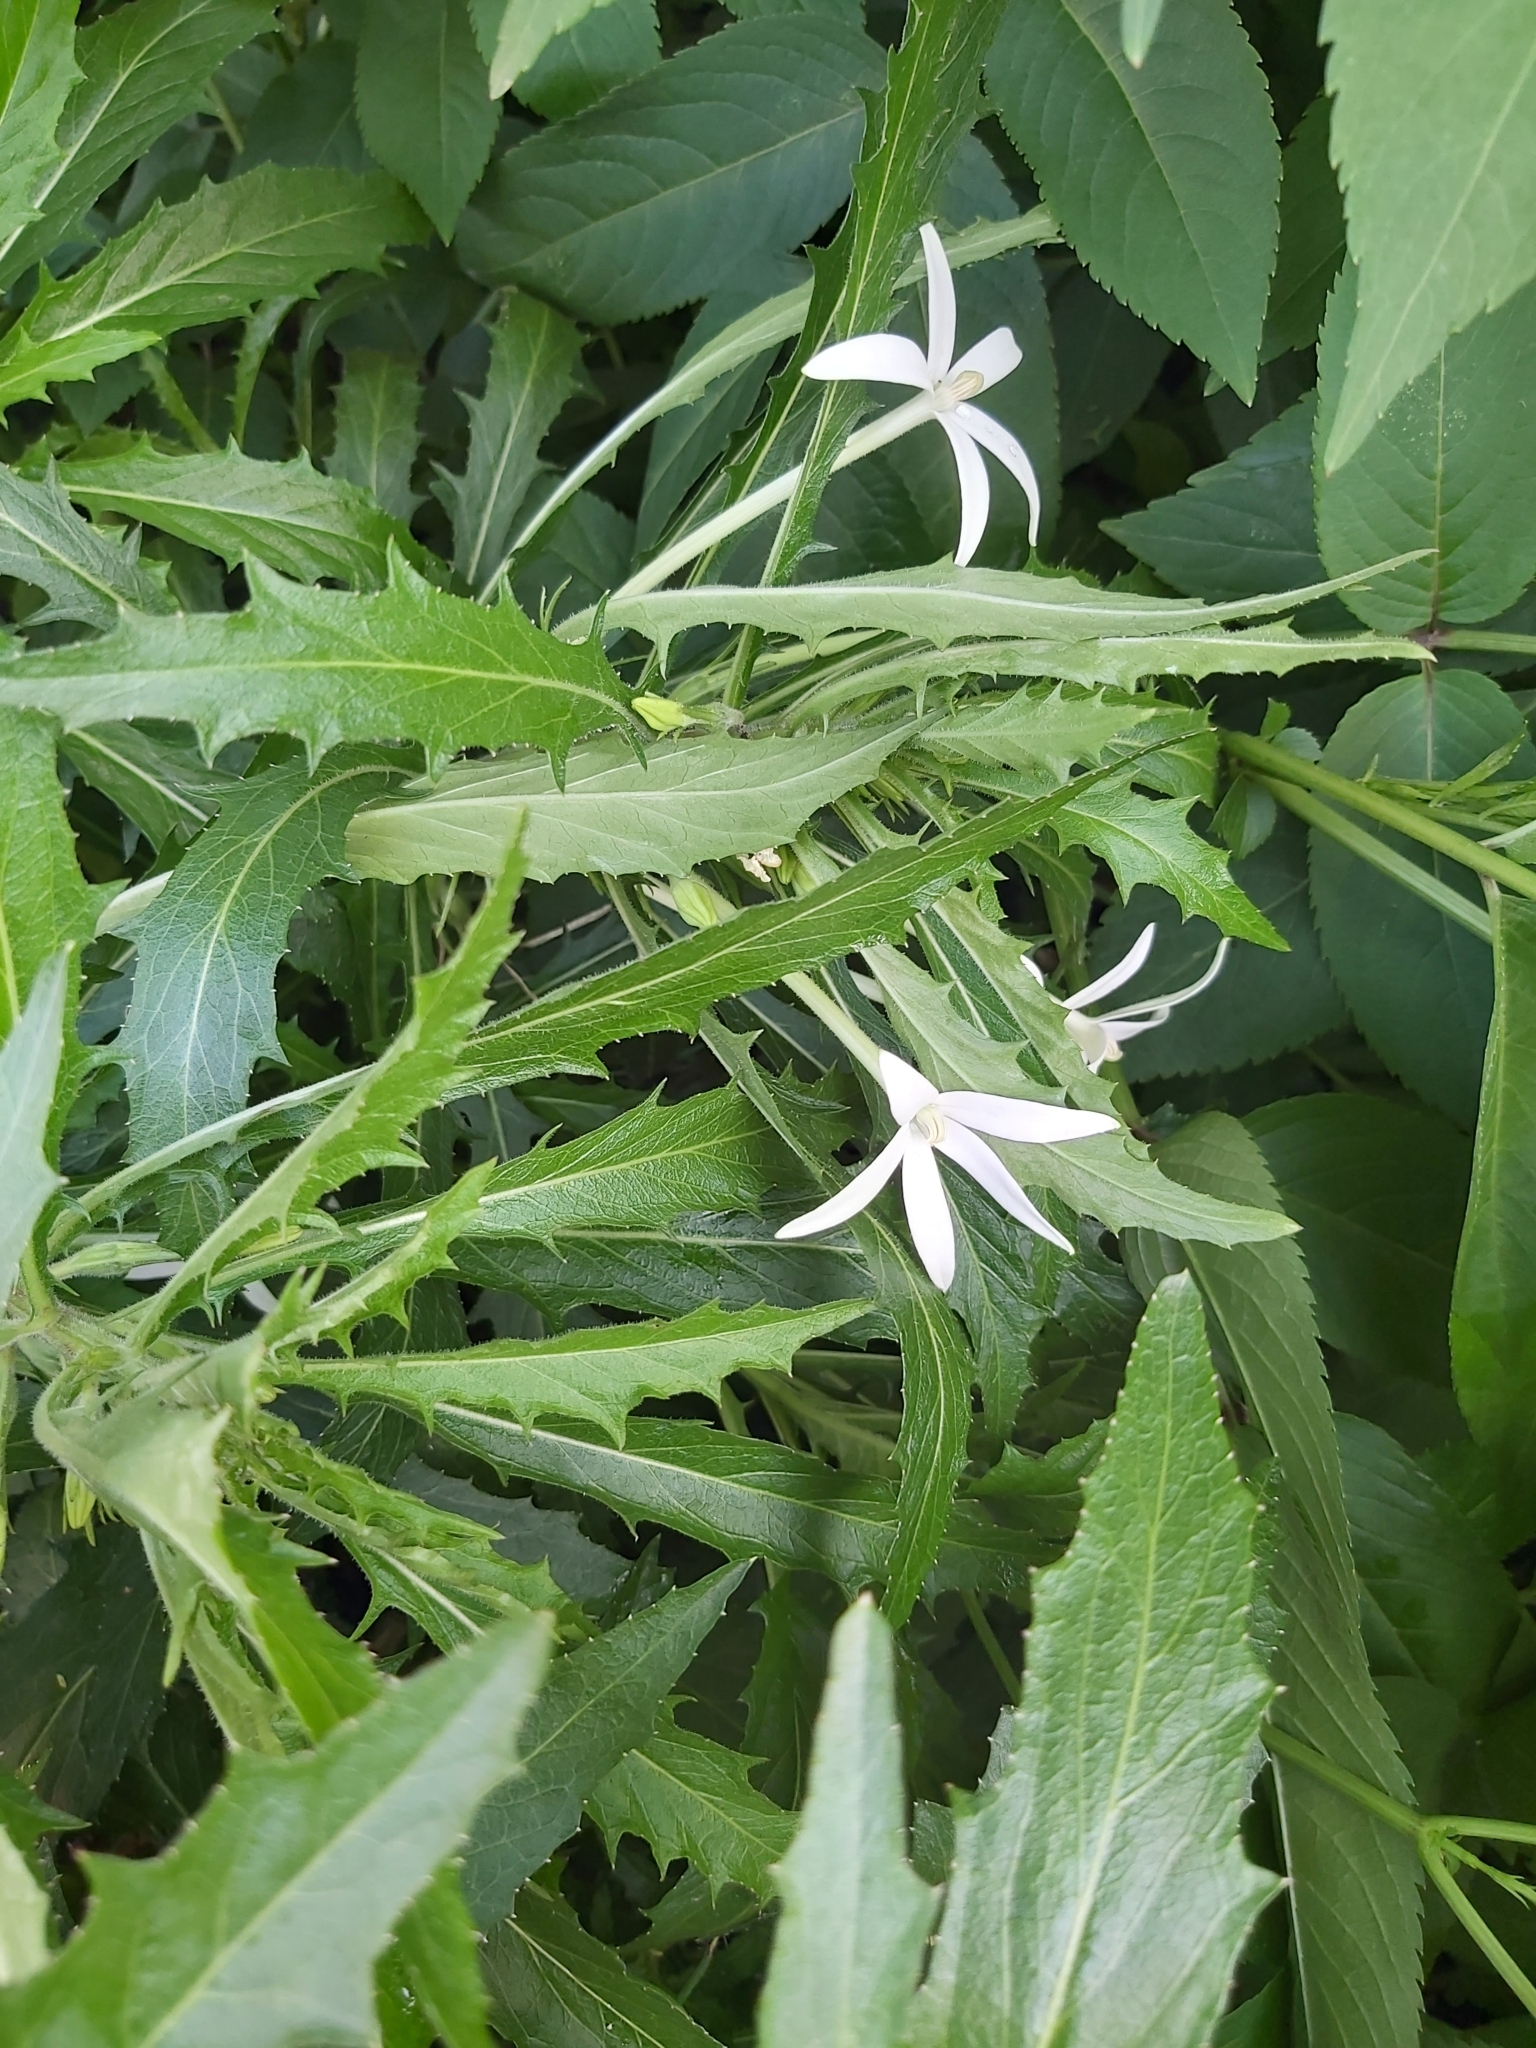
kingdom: Plantae
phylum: Tracheophyta
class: Magnoliopsida
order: Asterales
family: Campanulaceae
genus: Hippobroma
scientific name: Hippobroma longiflora
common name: Madamfate
